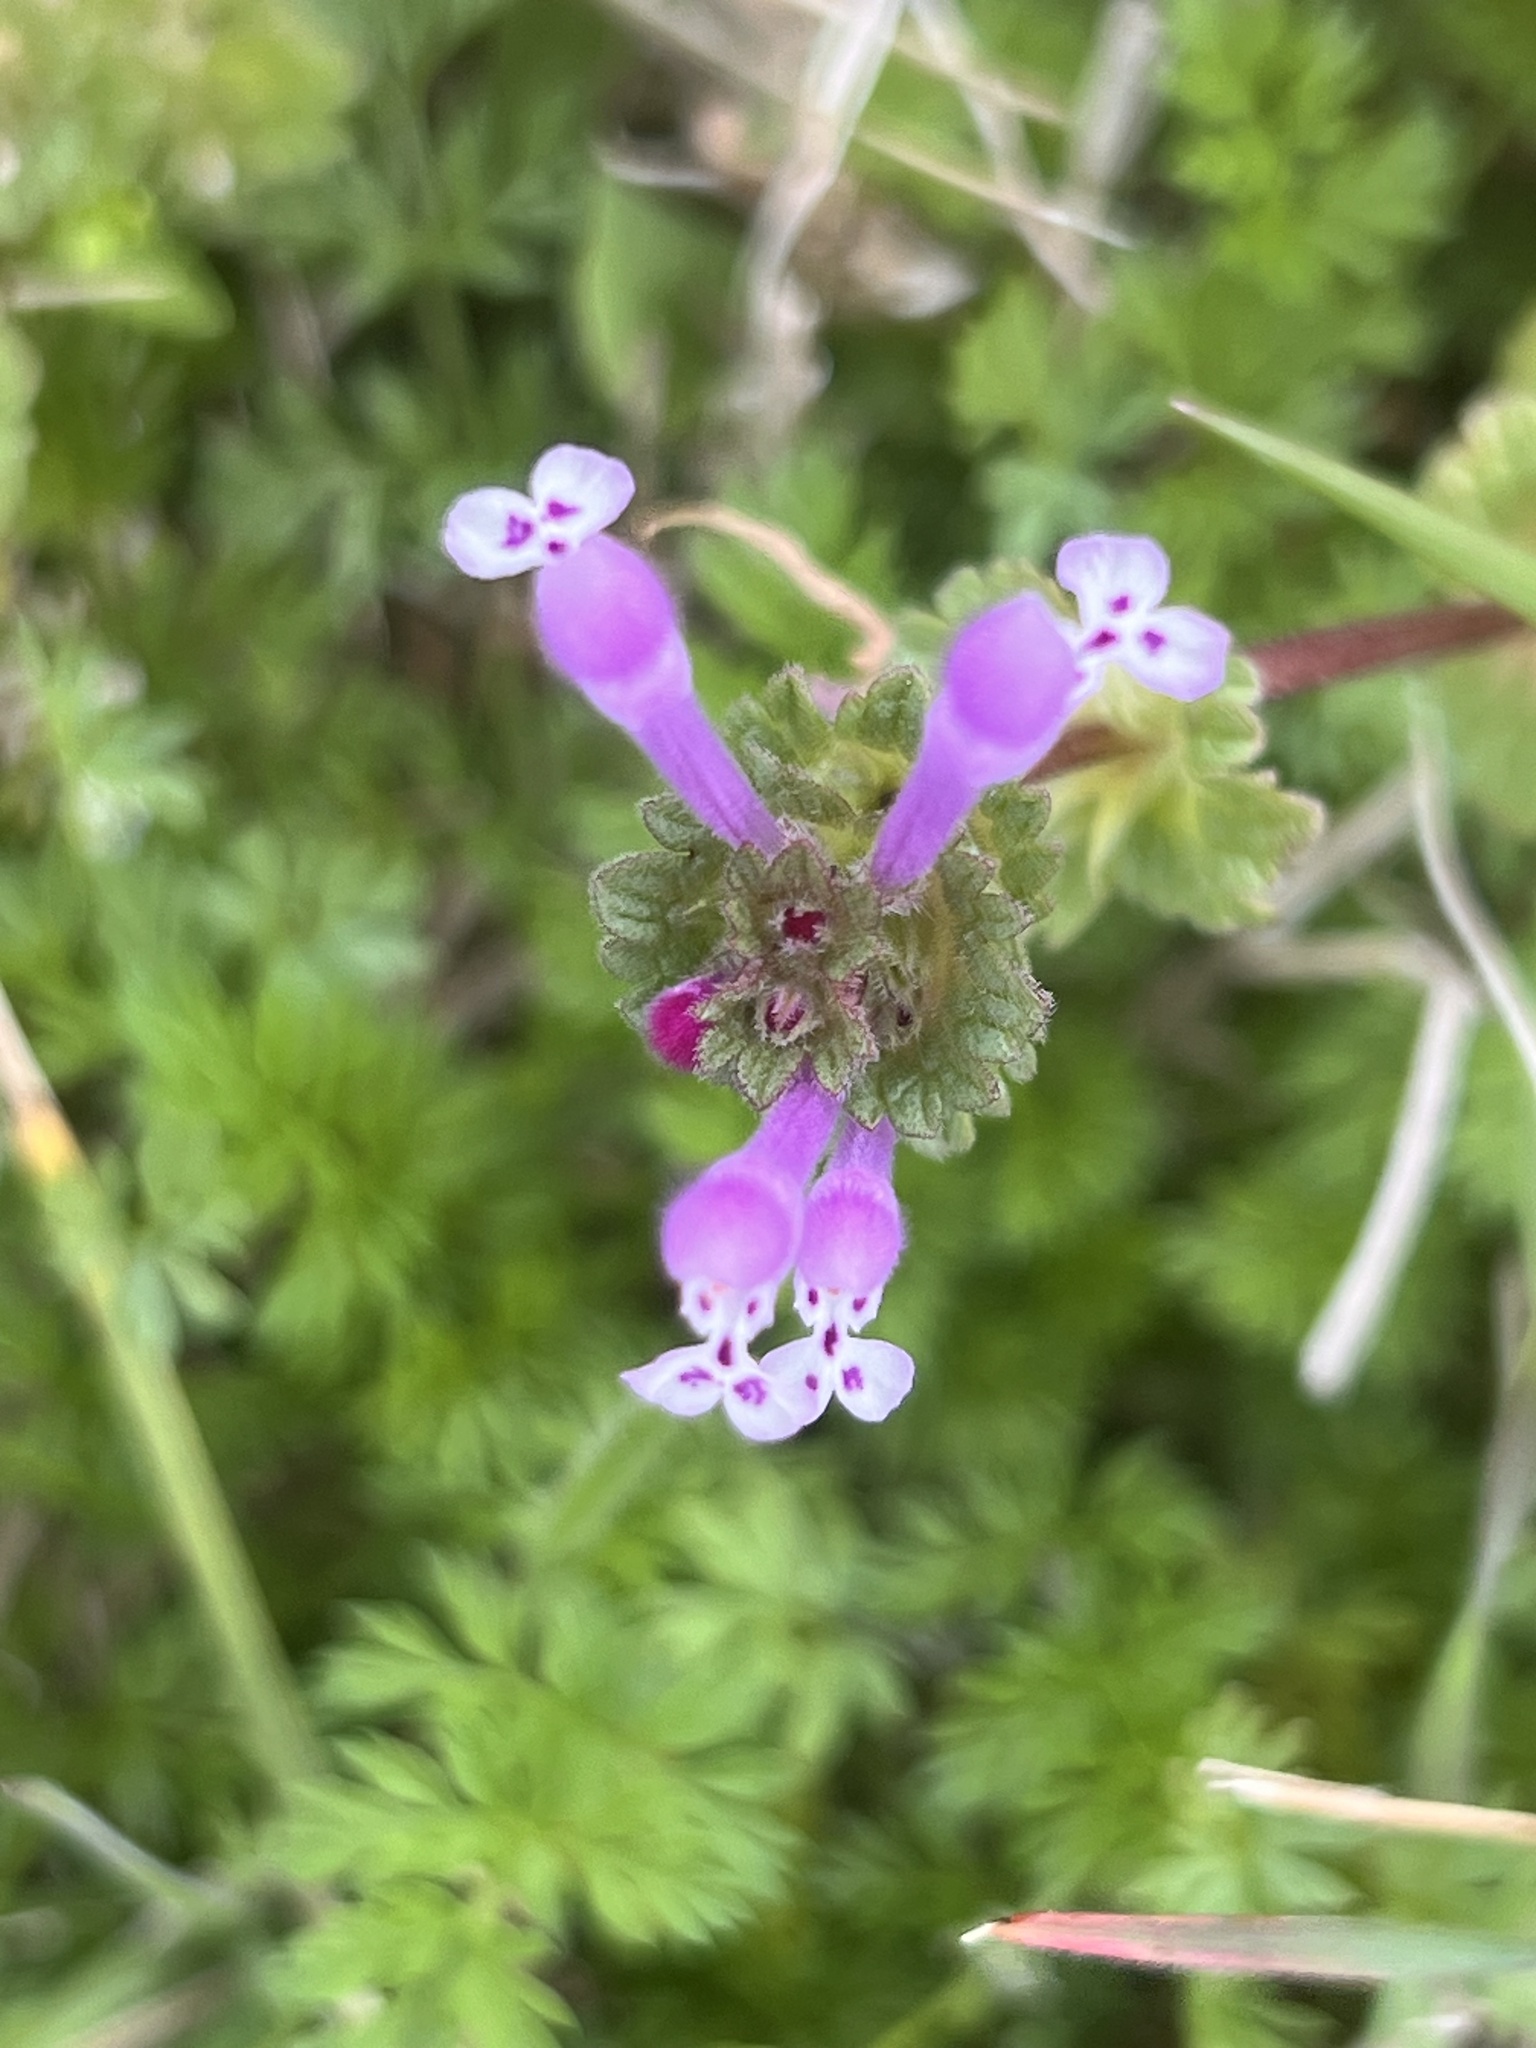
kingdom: Plantae
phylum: Tracheophyta
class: Magnoliopsida
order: Lamiales
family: Lamiaceae
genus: Lamium
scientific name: Lamium amplexicaule
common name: Henbit dead-nettle
